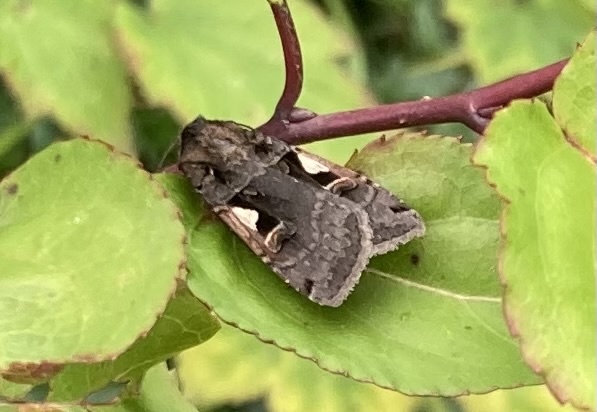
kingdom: Animalia
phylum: Arthropoda
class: Insecta
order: Lepidoptera
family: Noctuidae
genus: Xestia
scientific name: Xestia c-nigrum
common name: Setaceous hebrew character
